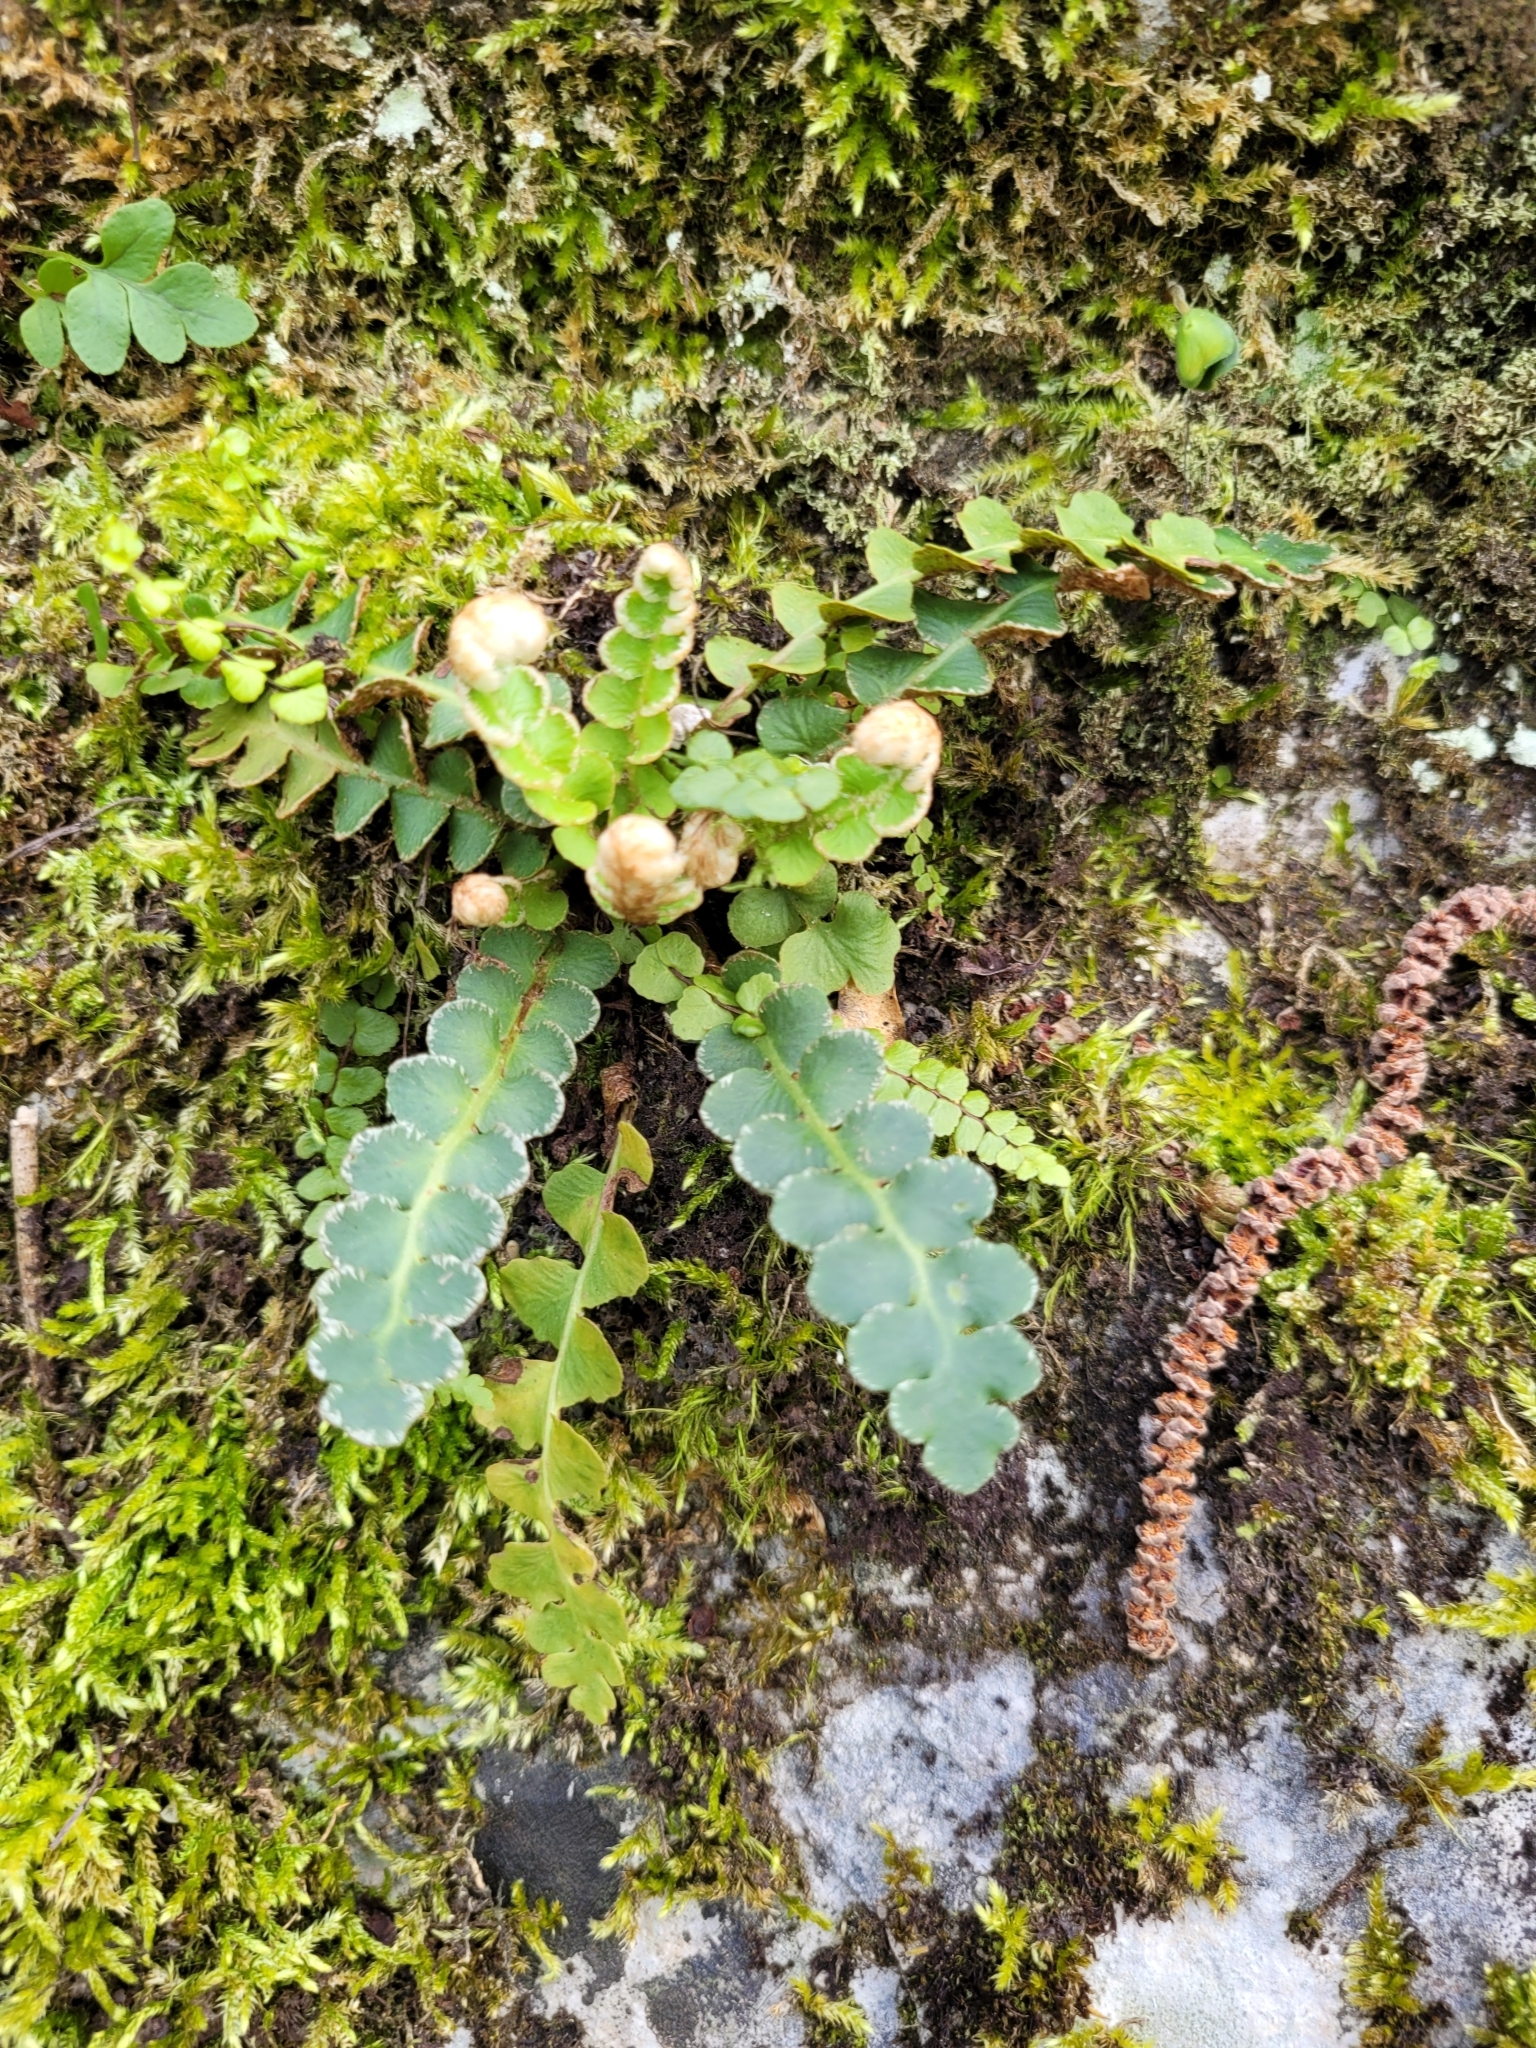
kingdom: Plantae
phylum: Tracheophyta
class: Polypodiopsida
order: Polypodiales
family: Aspleniaceae
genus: Asplenium
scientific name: Asplenium ceterach
